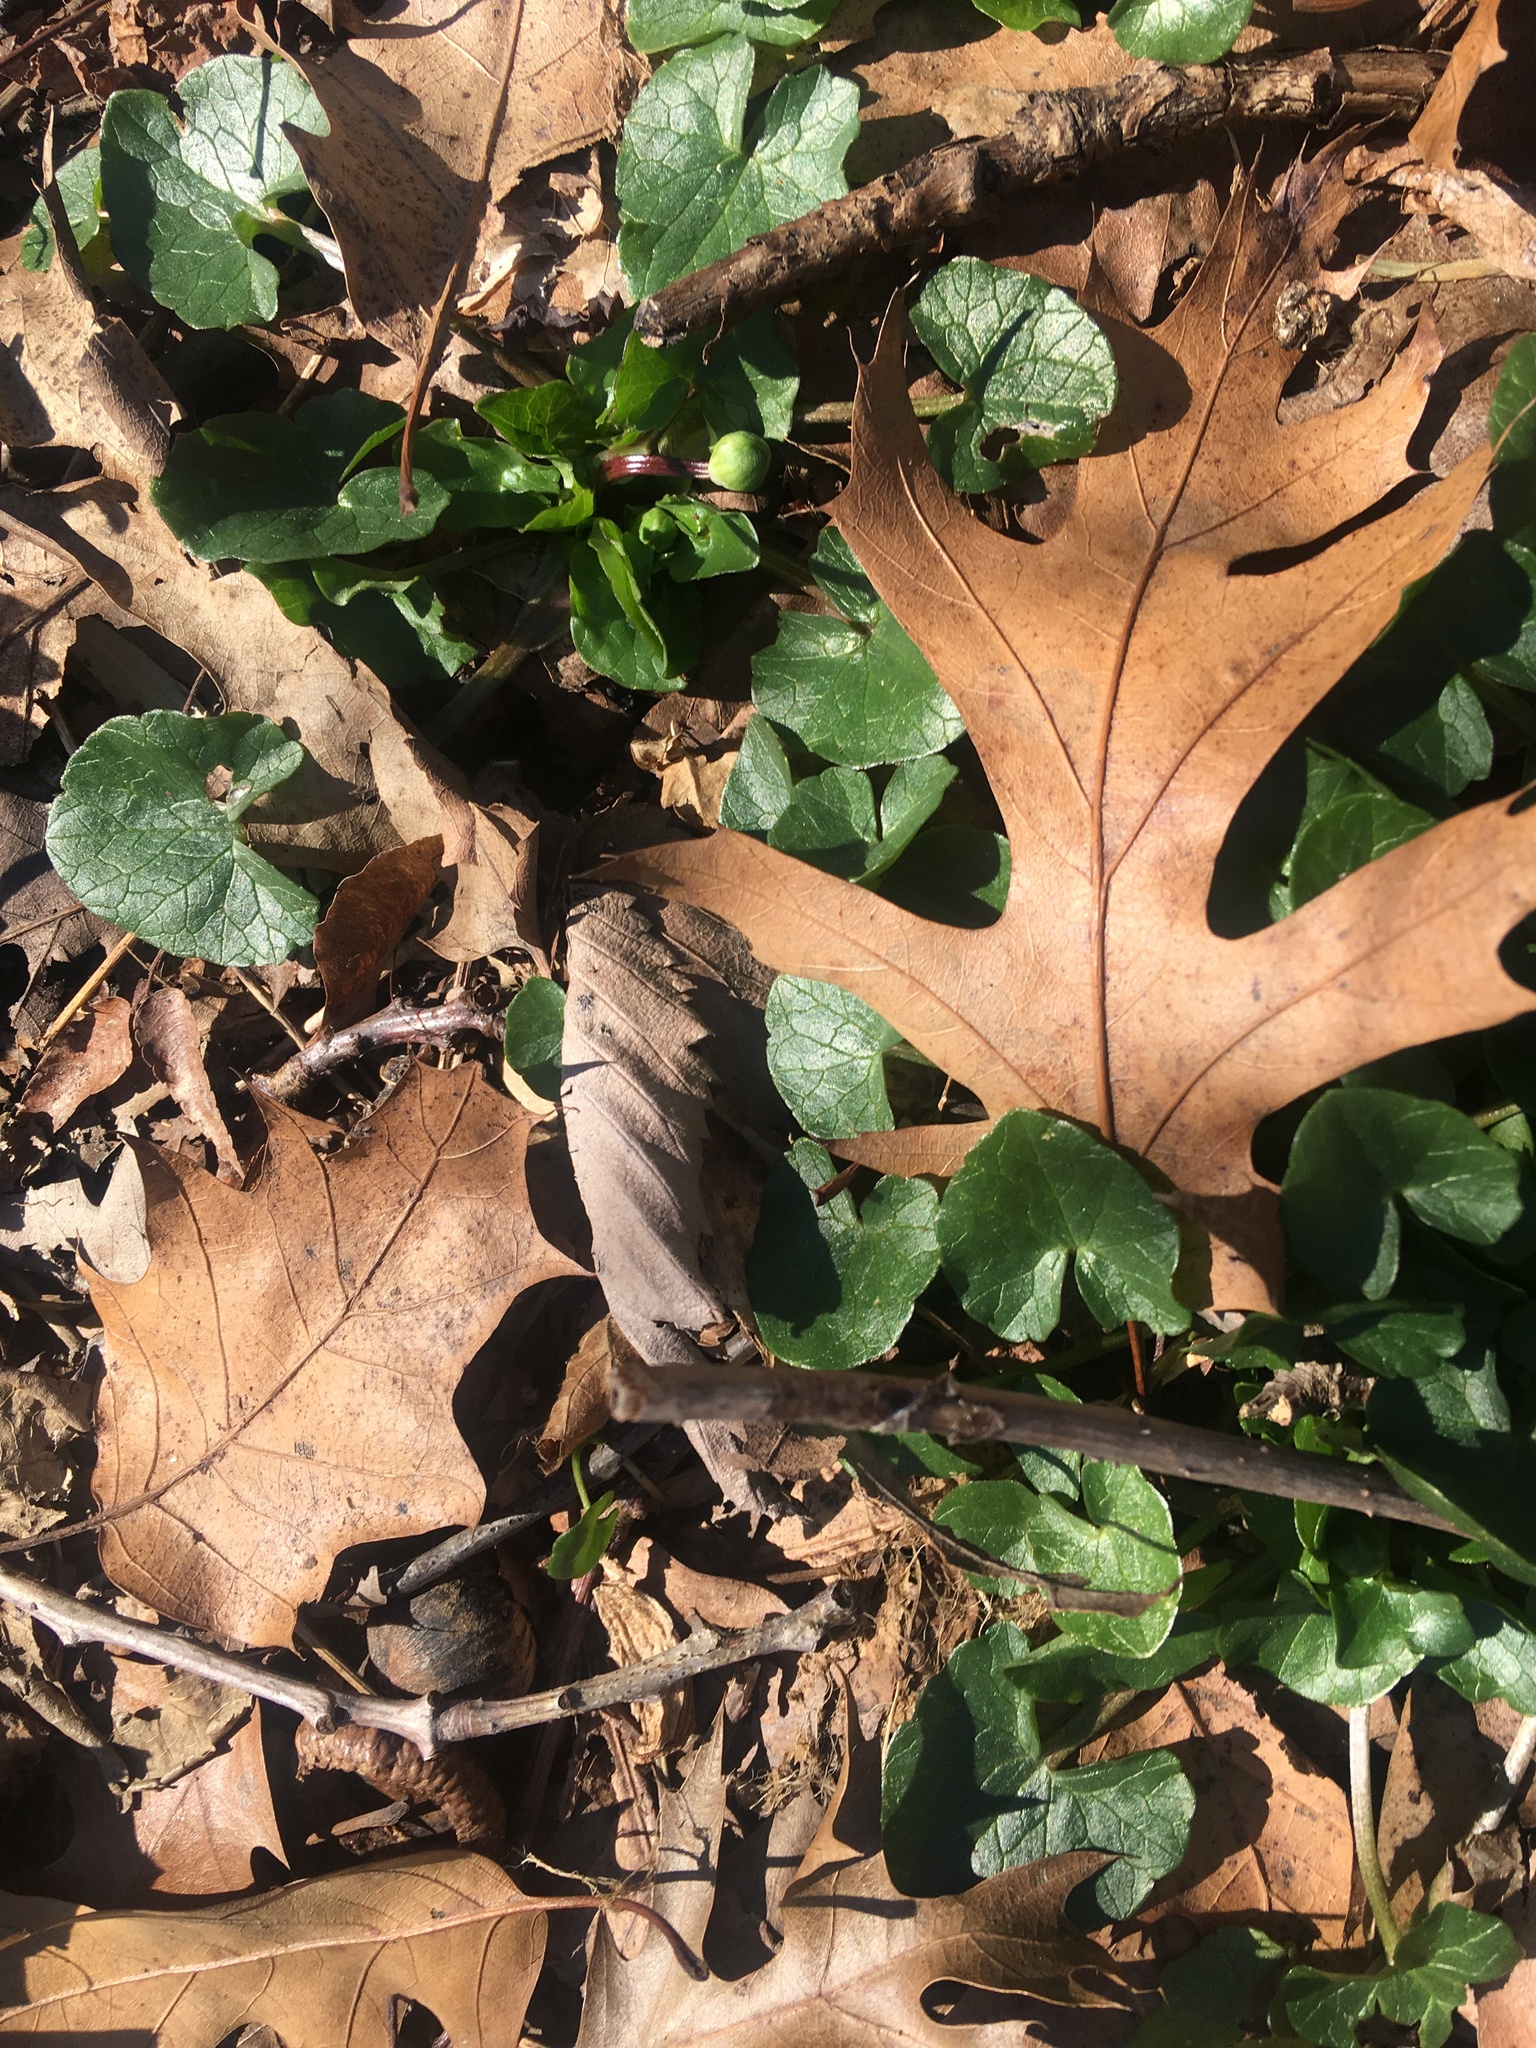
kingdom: Plantae
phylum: Tracheophyta
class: Magnoliopsida
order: Ranunculales
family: Ranunculaceae
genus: Ficaria
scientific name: Ficaria verna
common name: Lesser celandine
